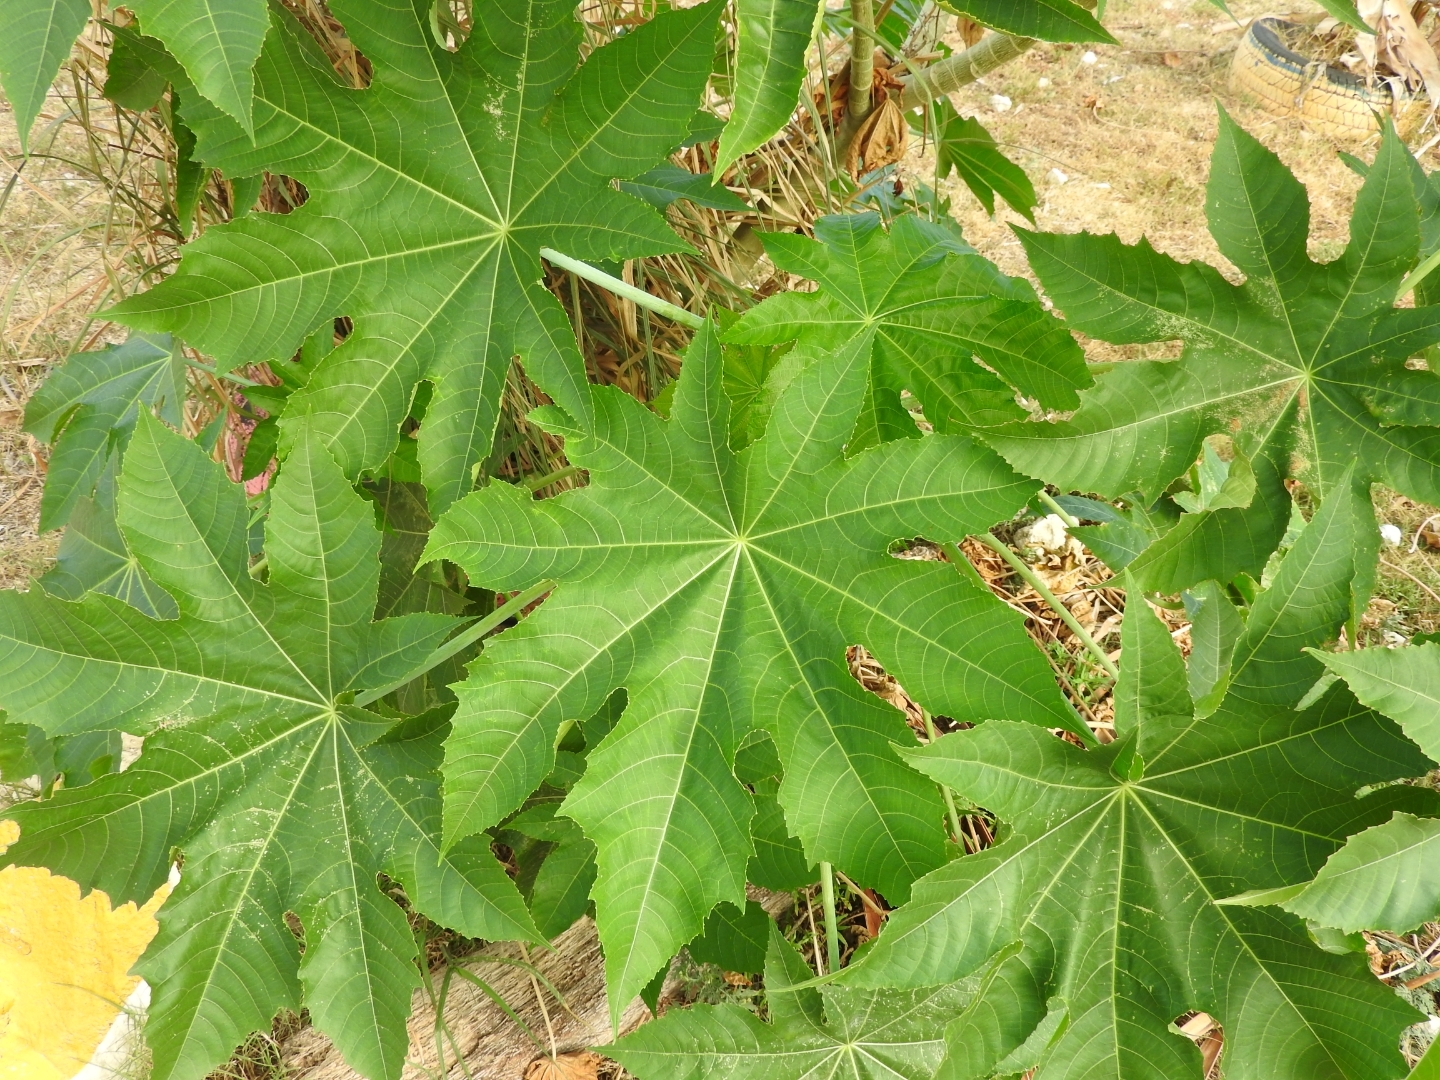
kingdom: Plantae
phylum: Tracheophyta
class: Magnoliopsida
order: Malpighiales
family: Euphorbiaceae
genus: Ricinus
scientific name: Ricinus communis
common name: Castor-oil-plant
